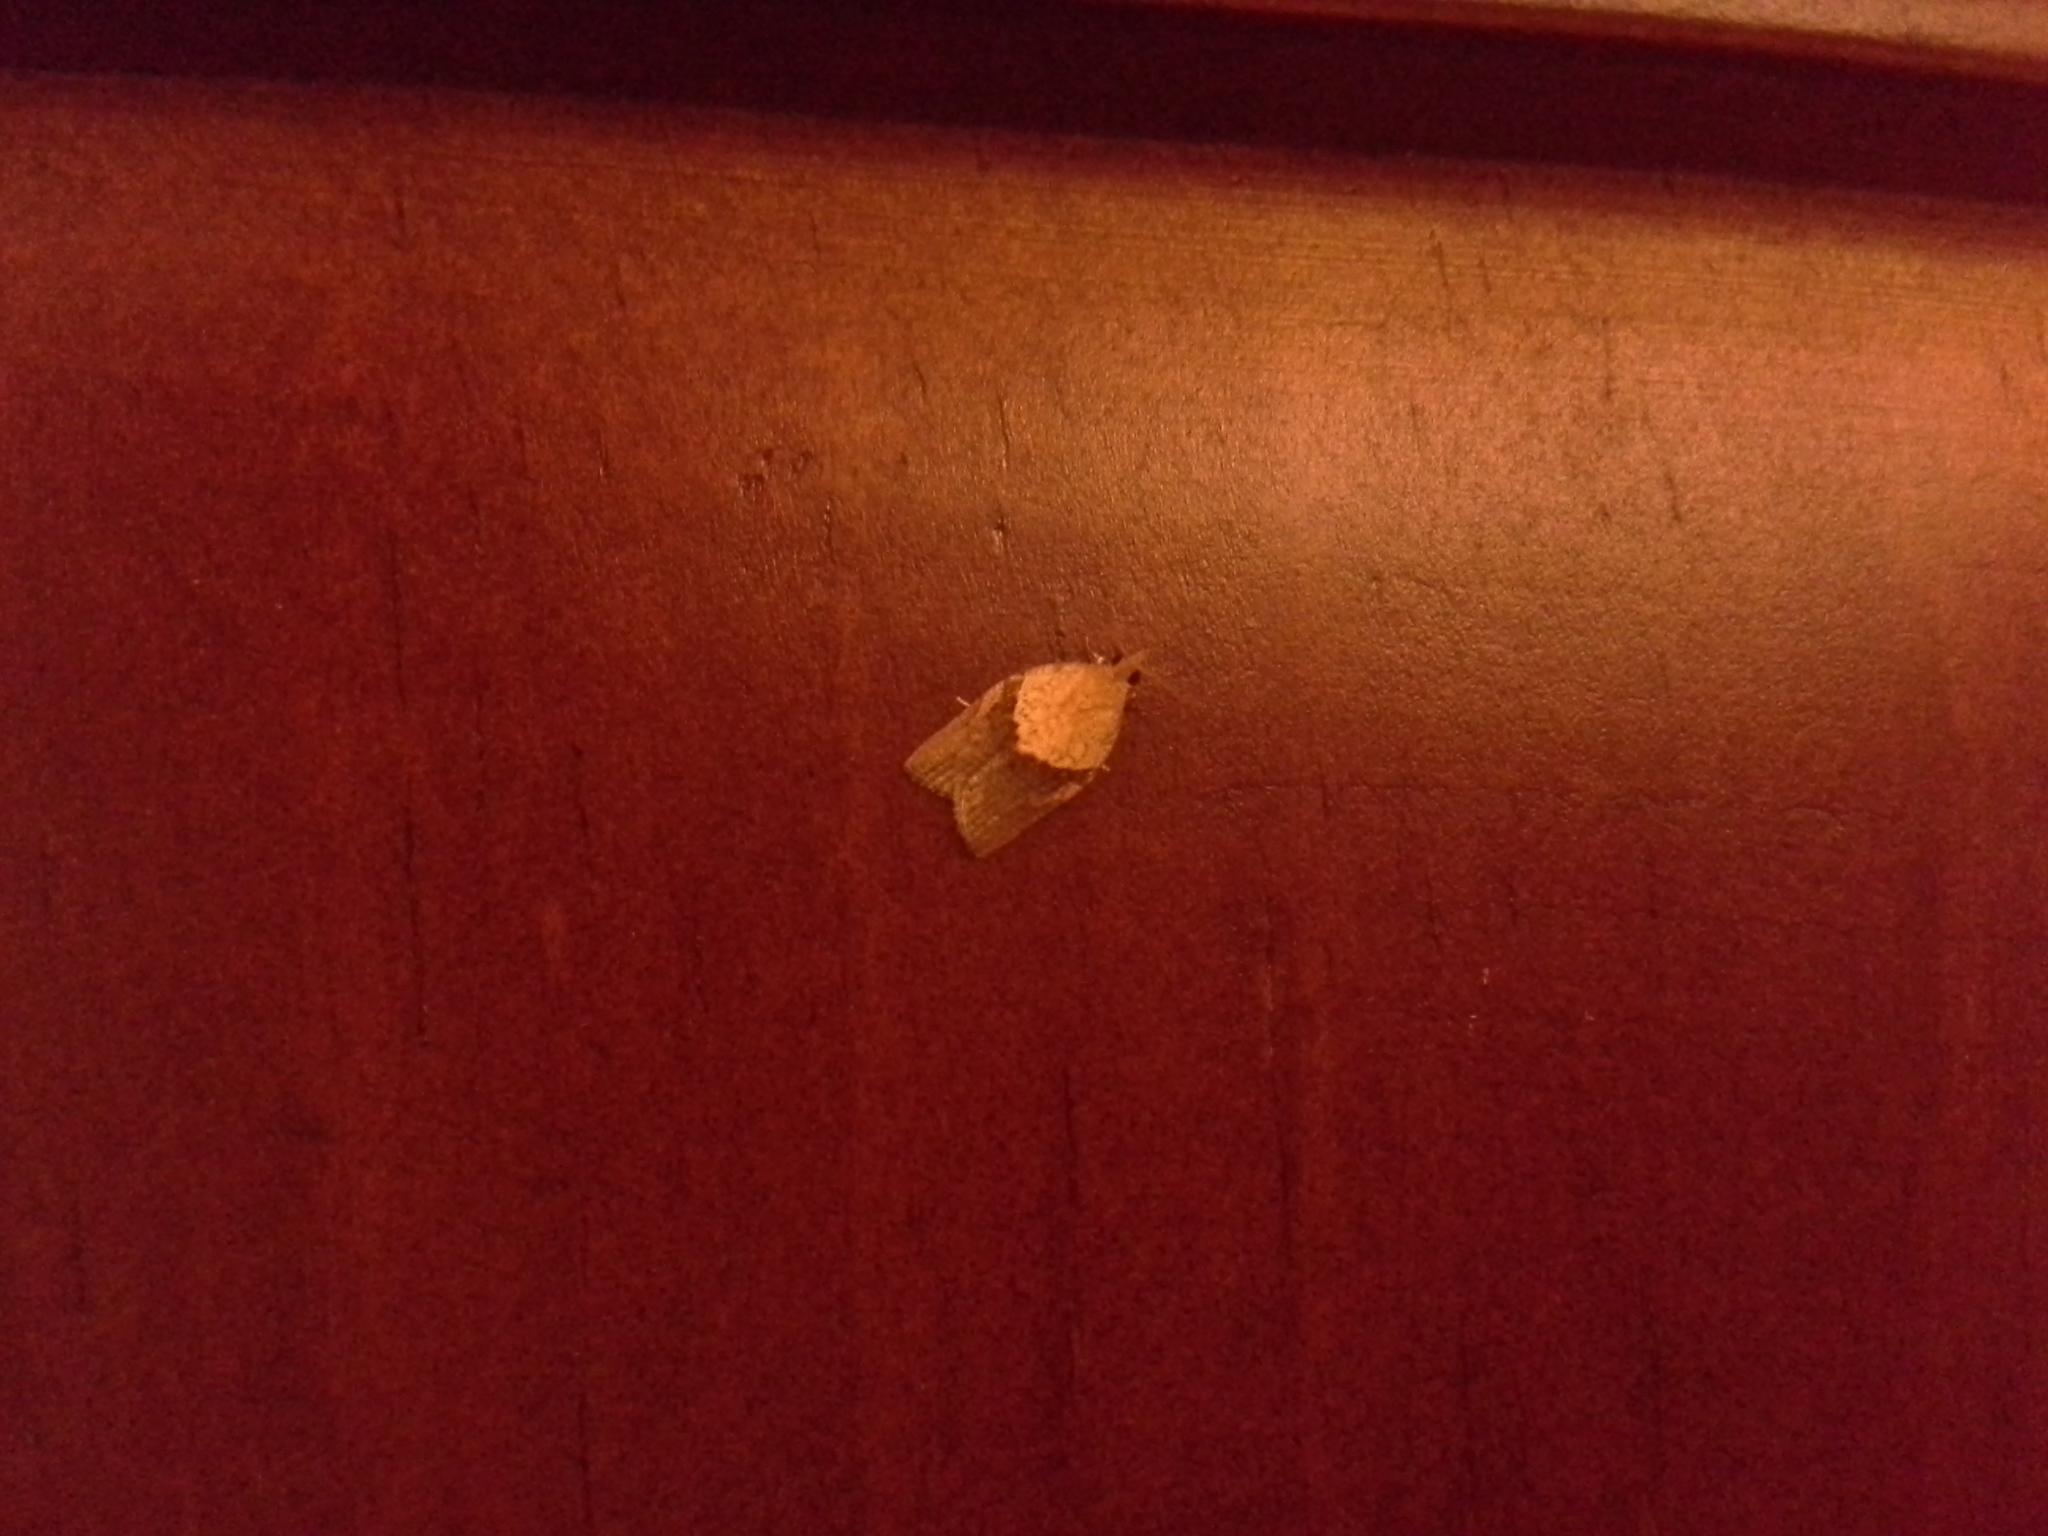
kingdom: Animalia
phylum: Arthropoda
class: Insecta
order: Lepidoptera
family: Tortricidae
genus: Epiphyas
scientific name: Epiphyas postvittana
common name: Light brown apple moth
